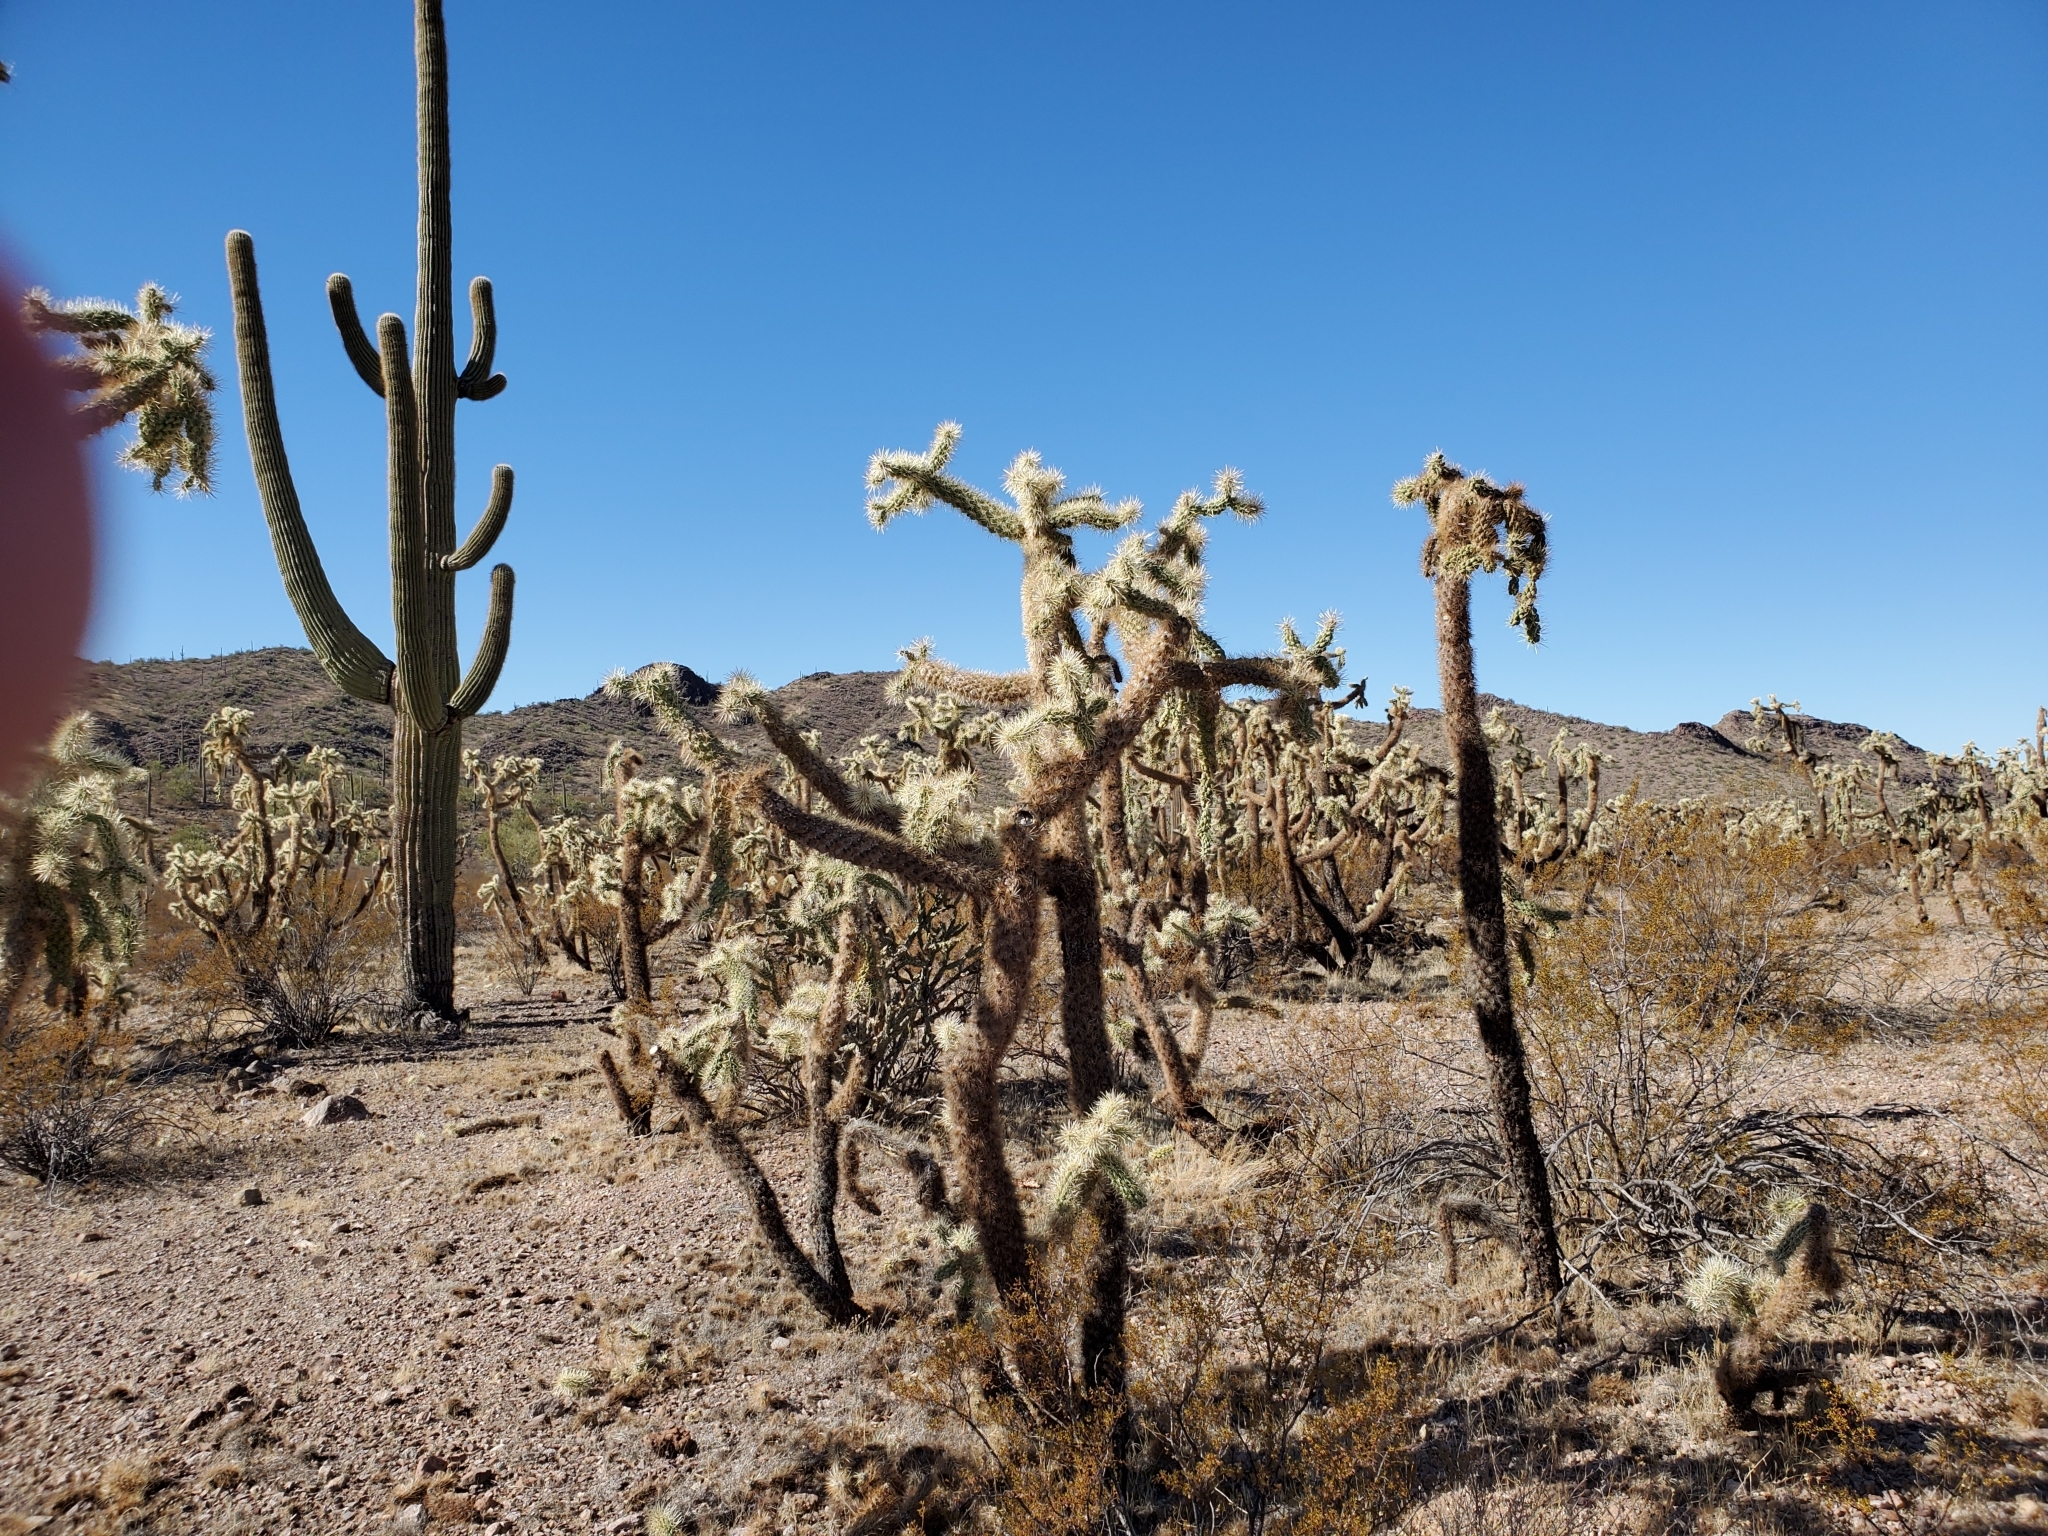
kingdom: Plantae
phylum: Tracheophyta
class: Magnoliopsida
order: Caryophyllales
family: Cactaceae
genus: Cylindropuntia
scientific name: Cylindropuntia fulgida
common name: Jumping cholla
